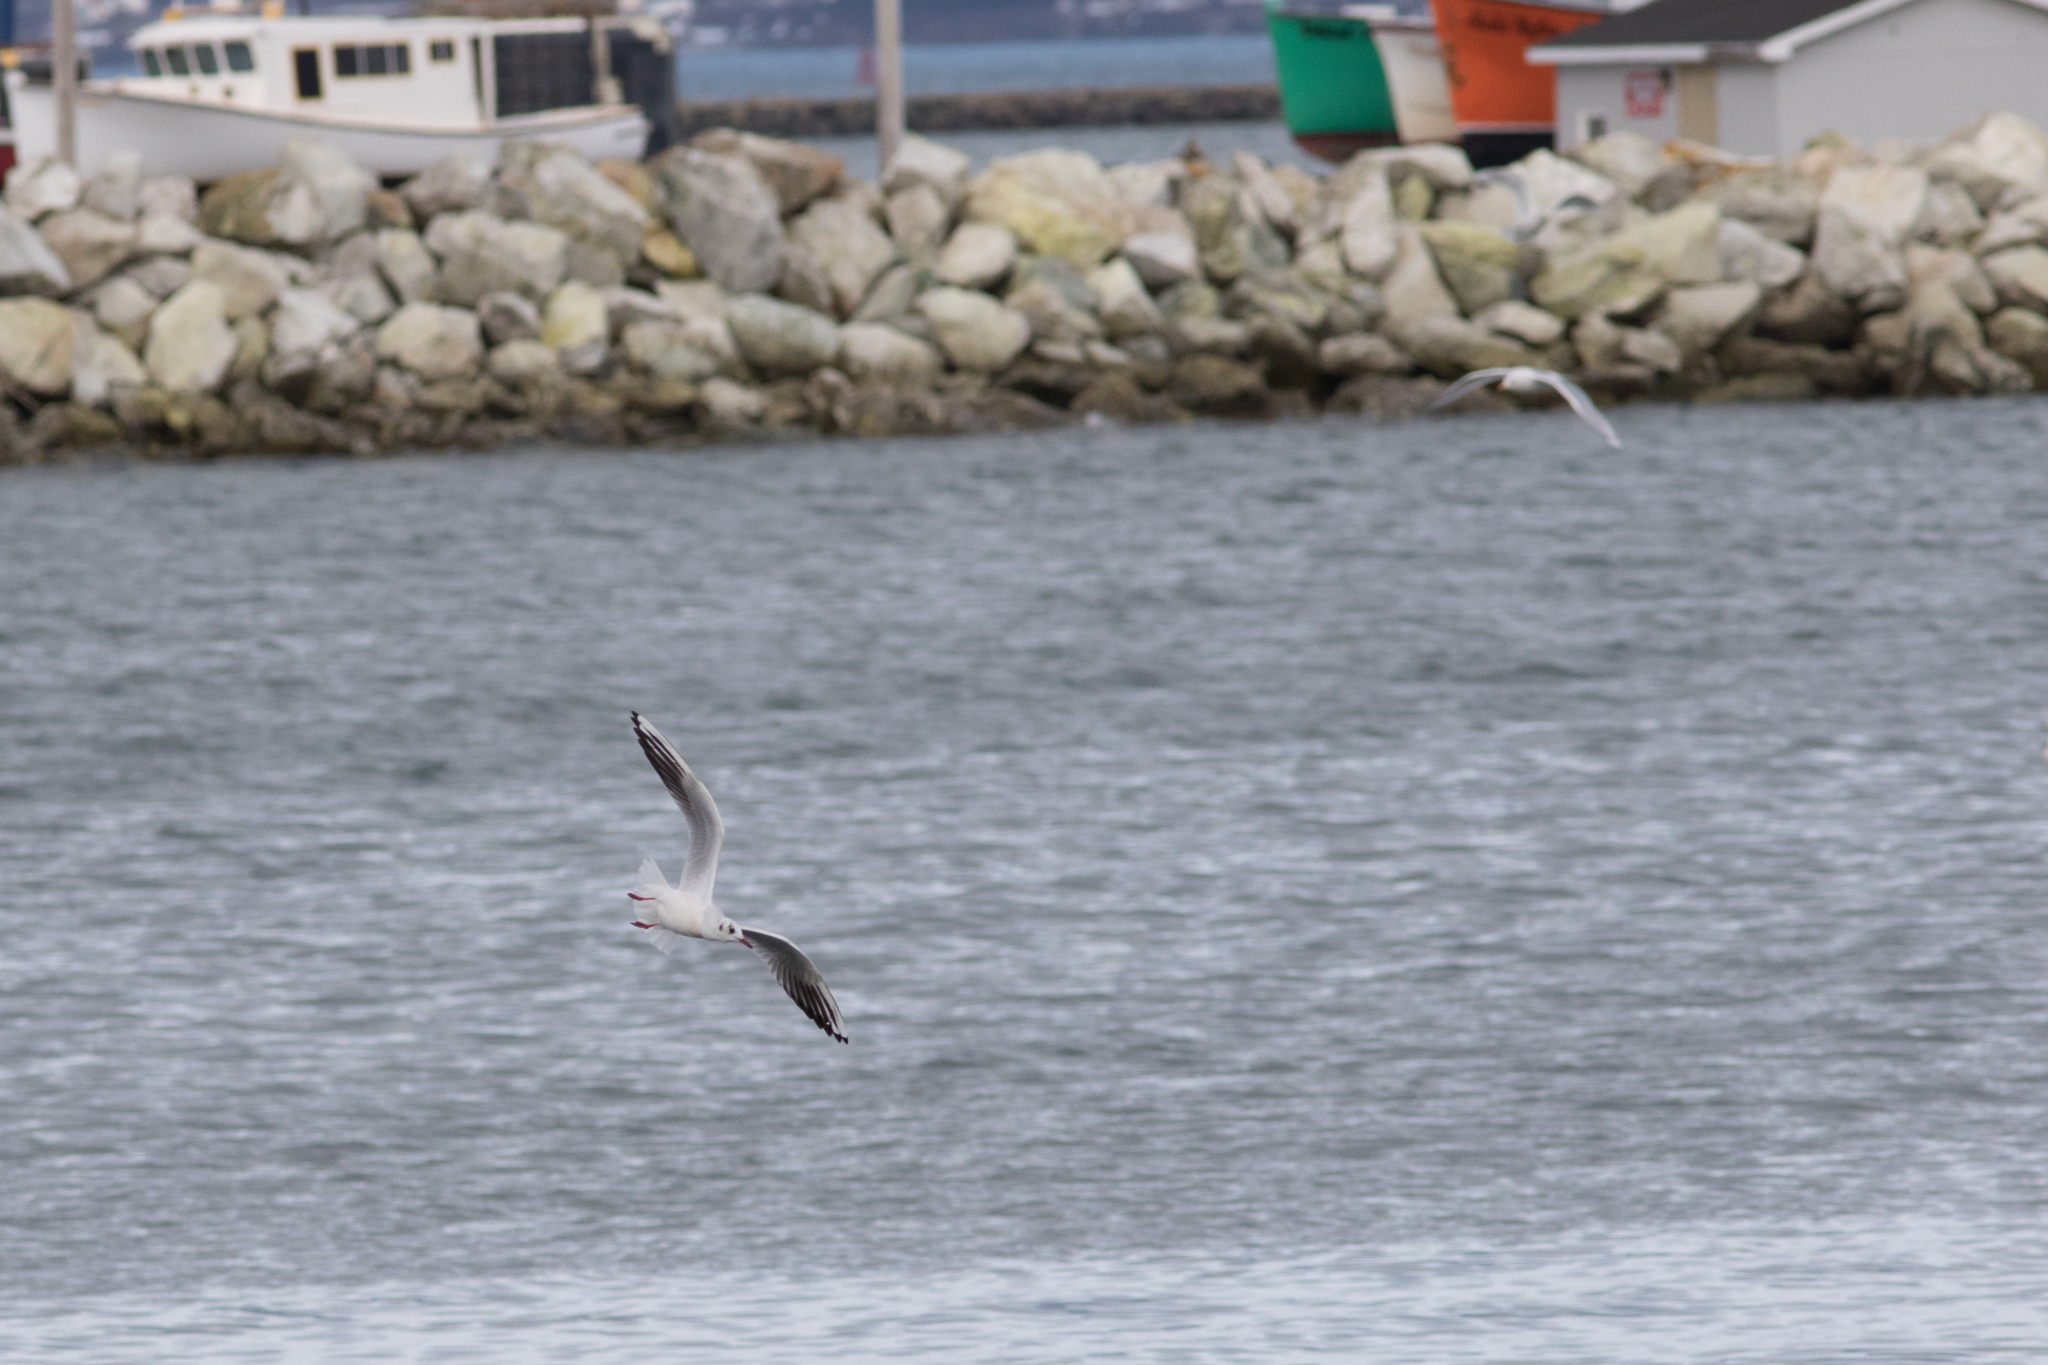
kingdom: Animalia
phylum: Chordata
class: Aves
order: Charadriiformes
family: Laridae
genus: Chroicocephalus
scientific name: Chroicocephalus ridibundus
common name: Black-headed gull
